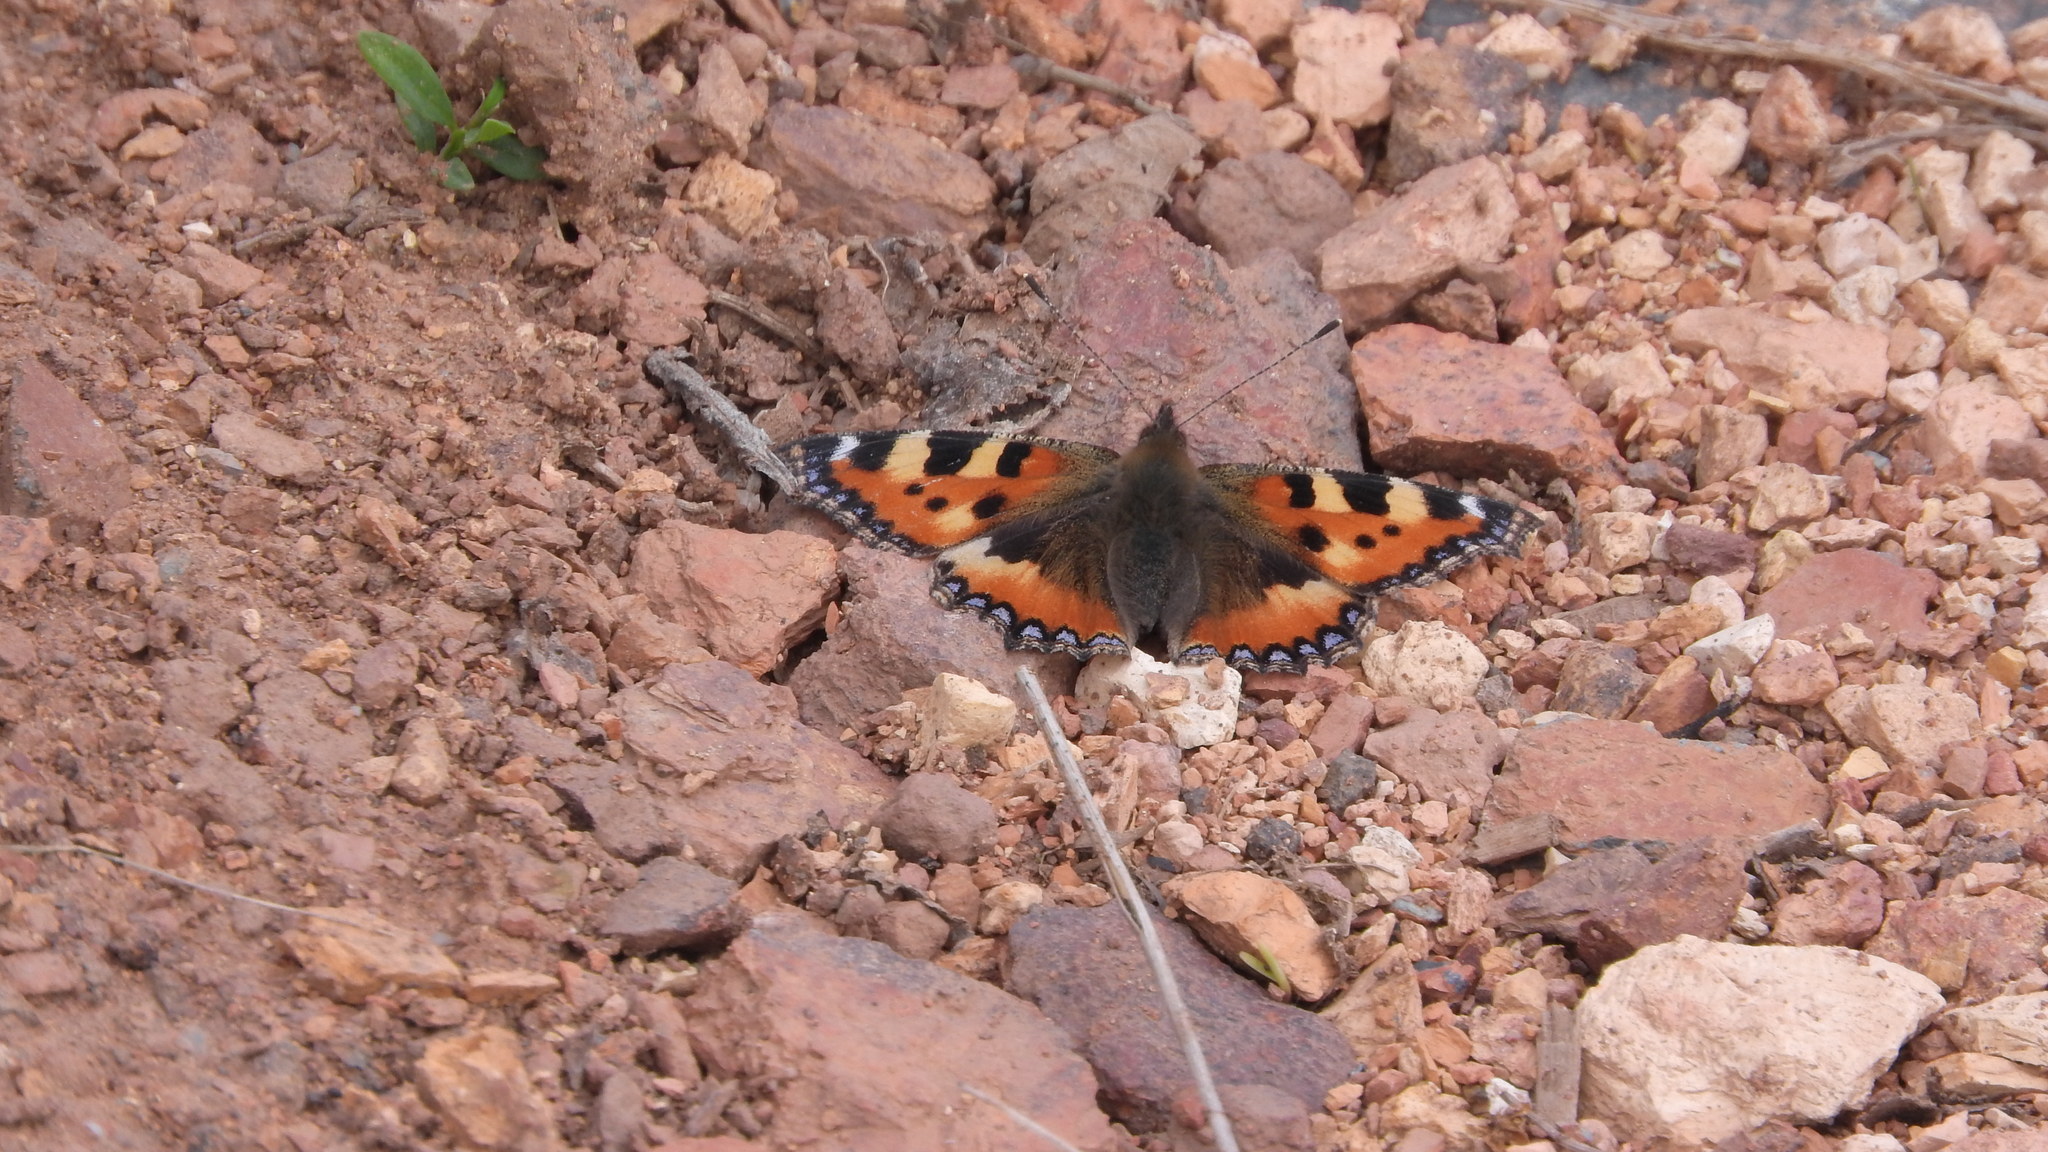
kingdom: Animalia
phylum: Arthropoda
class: Insecta
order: Lepidoptera
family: Nymphalidae
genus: Aglais
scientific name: Aglais urticae
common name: Small tortoiseshell
